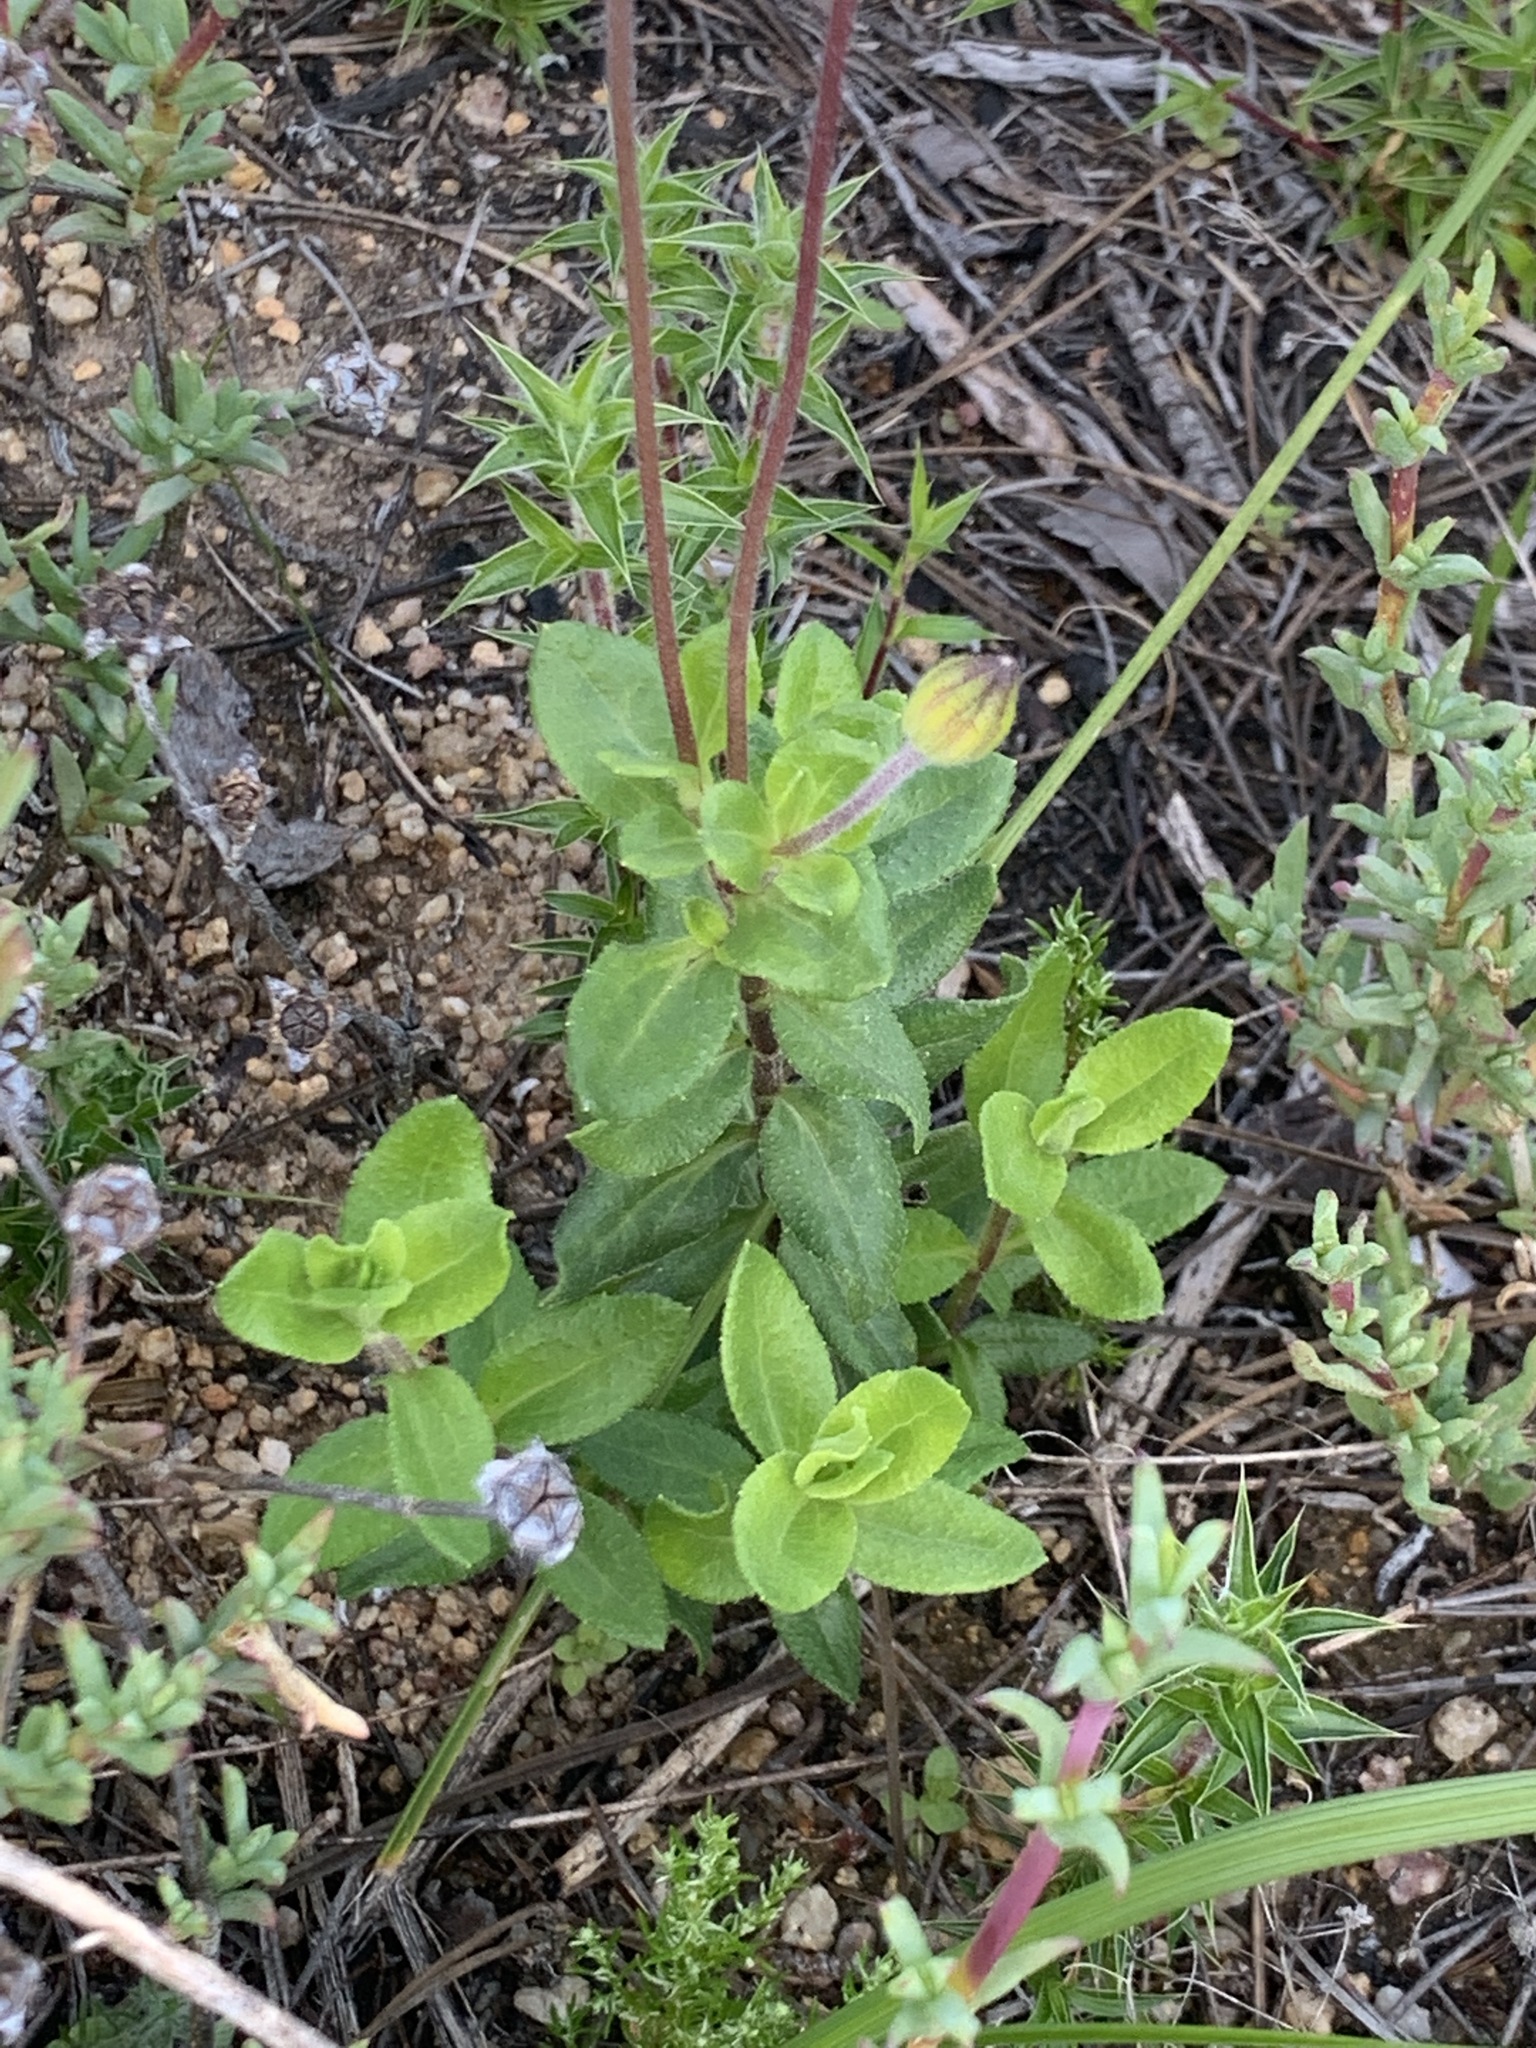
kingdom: Plantae
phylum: Tracheophyta
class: Magnoliopsida
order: Asterales
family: Asteraceae
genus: Felicia
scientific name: Felicia aethiopica
